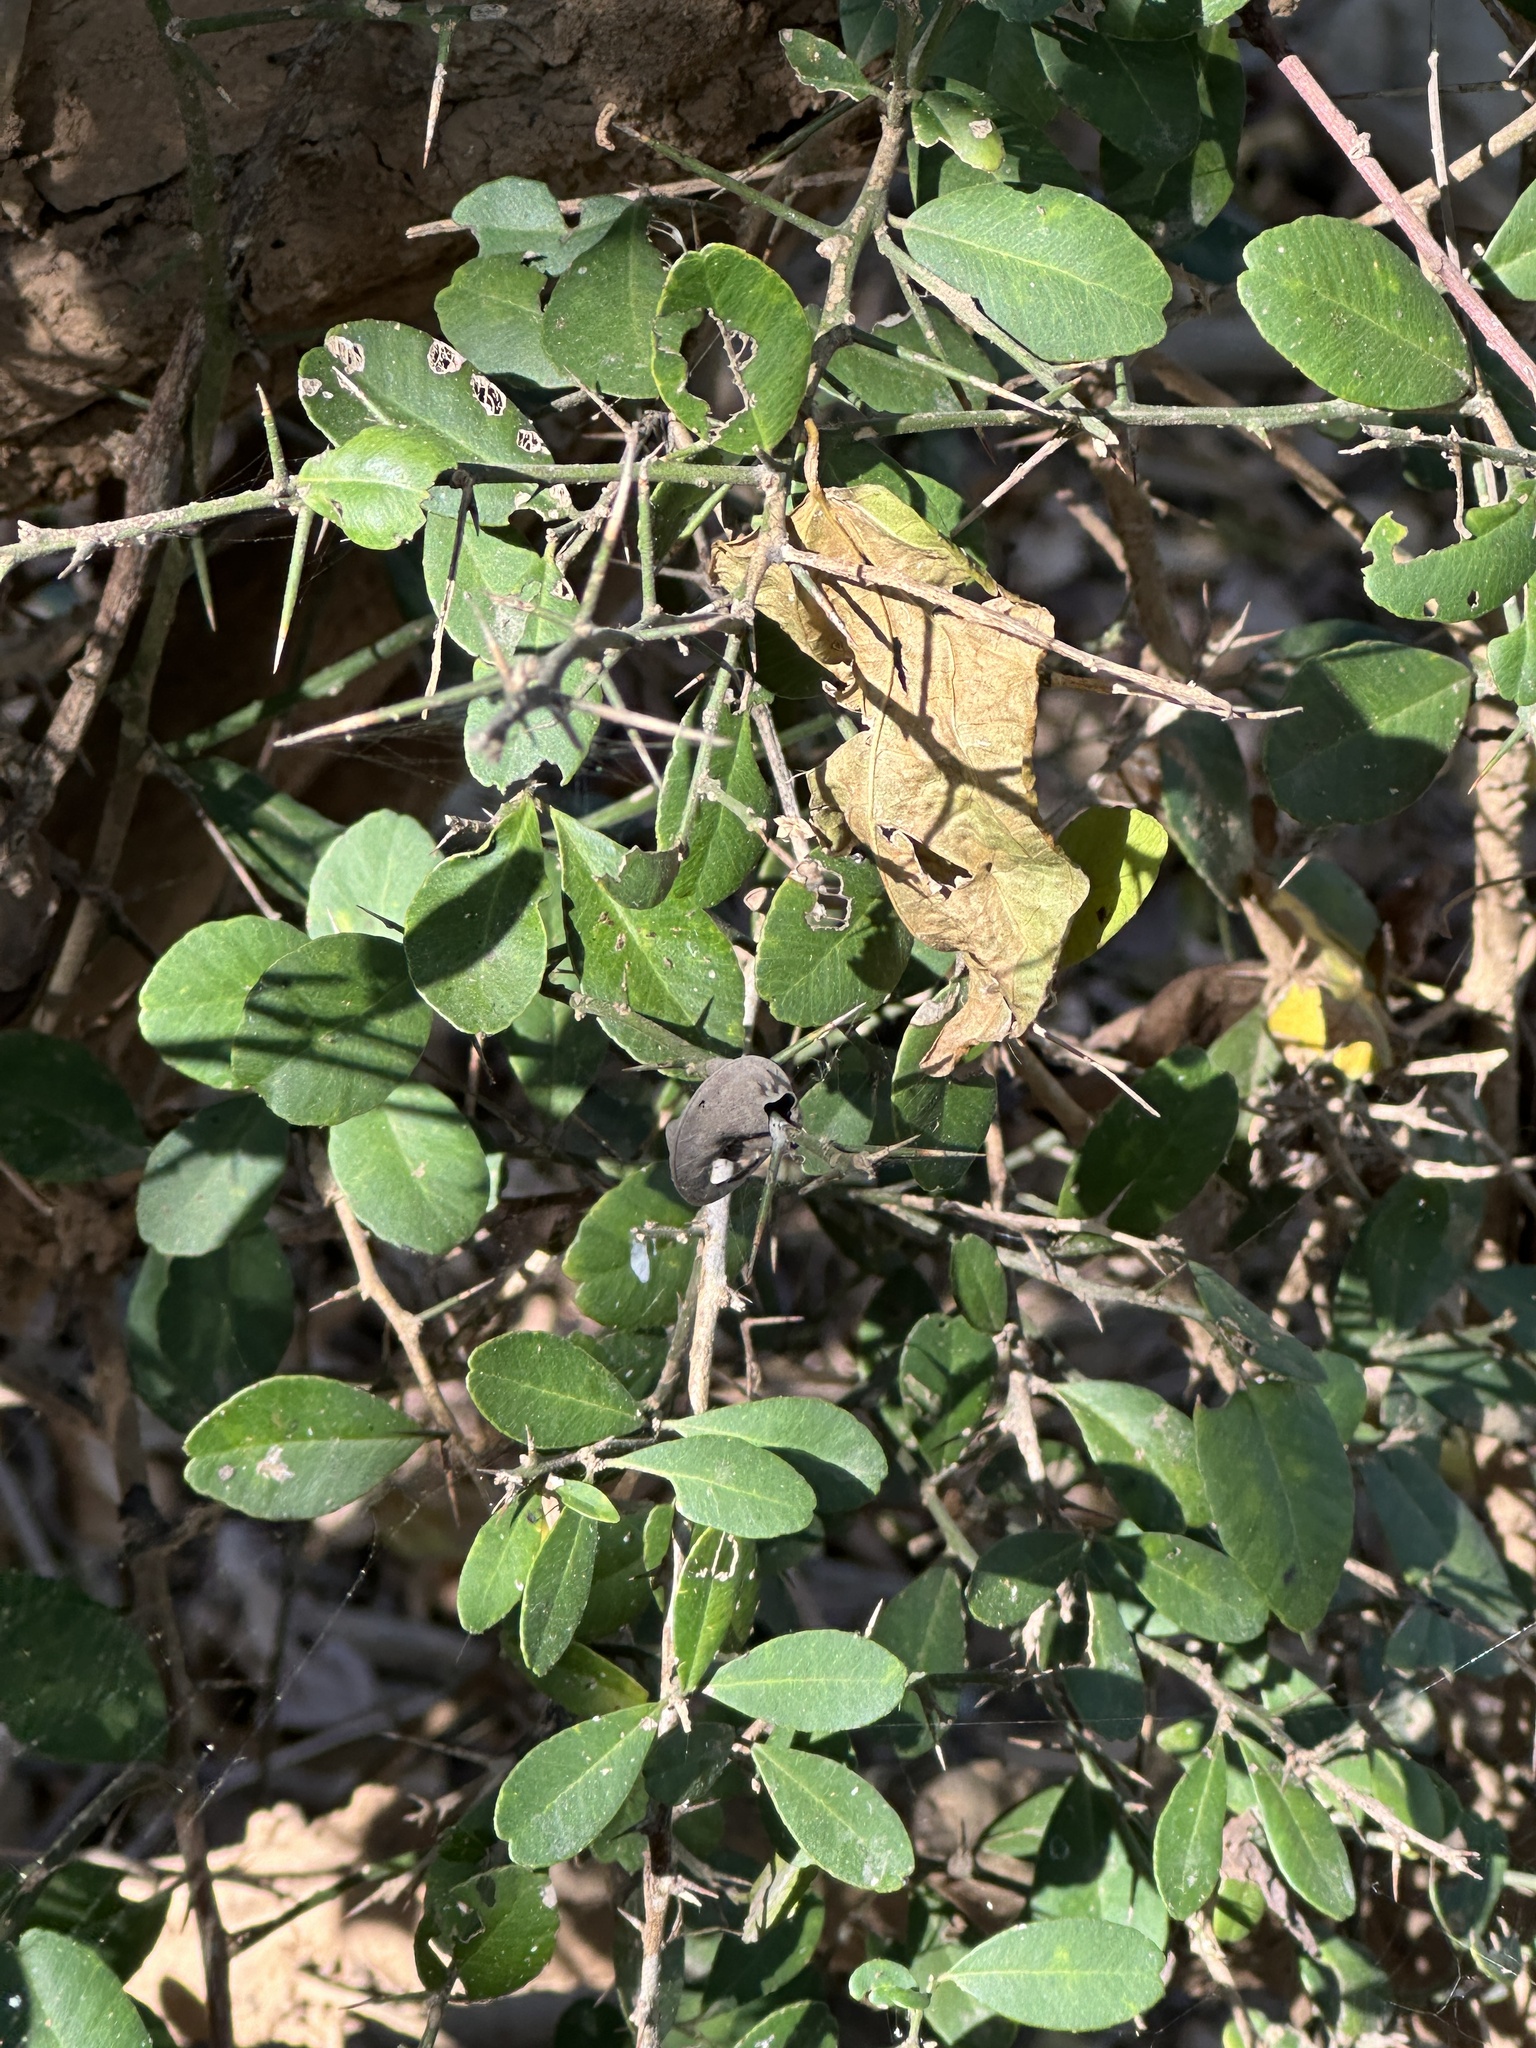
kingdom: Plantae
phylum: Tracheophyta
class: Magnoliopsida
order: Sapindales
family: Rutaceae
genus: Atalantia
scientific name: Atalantia buxifolia
